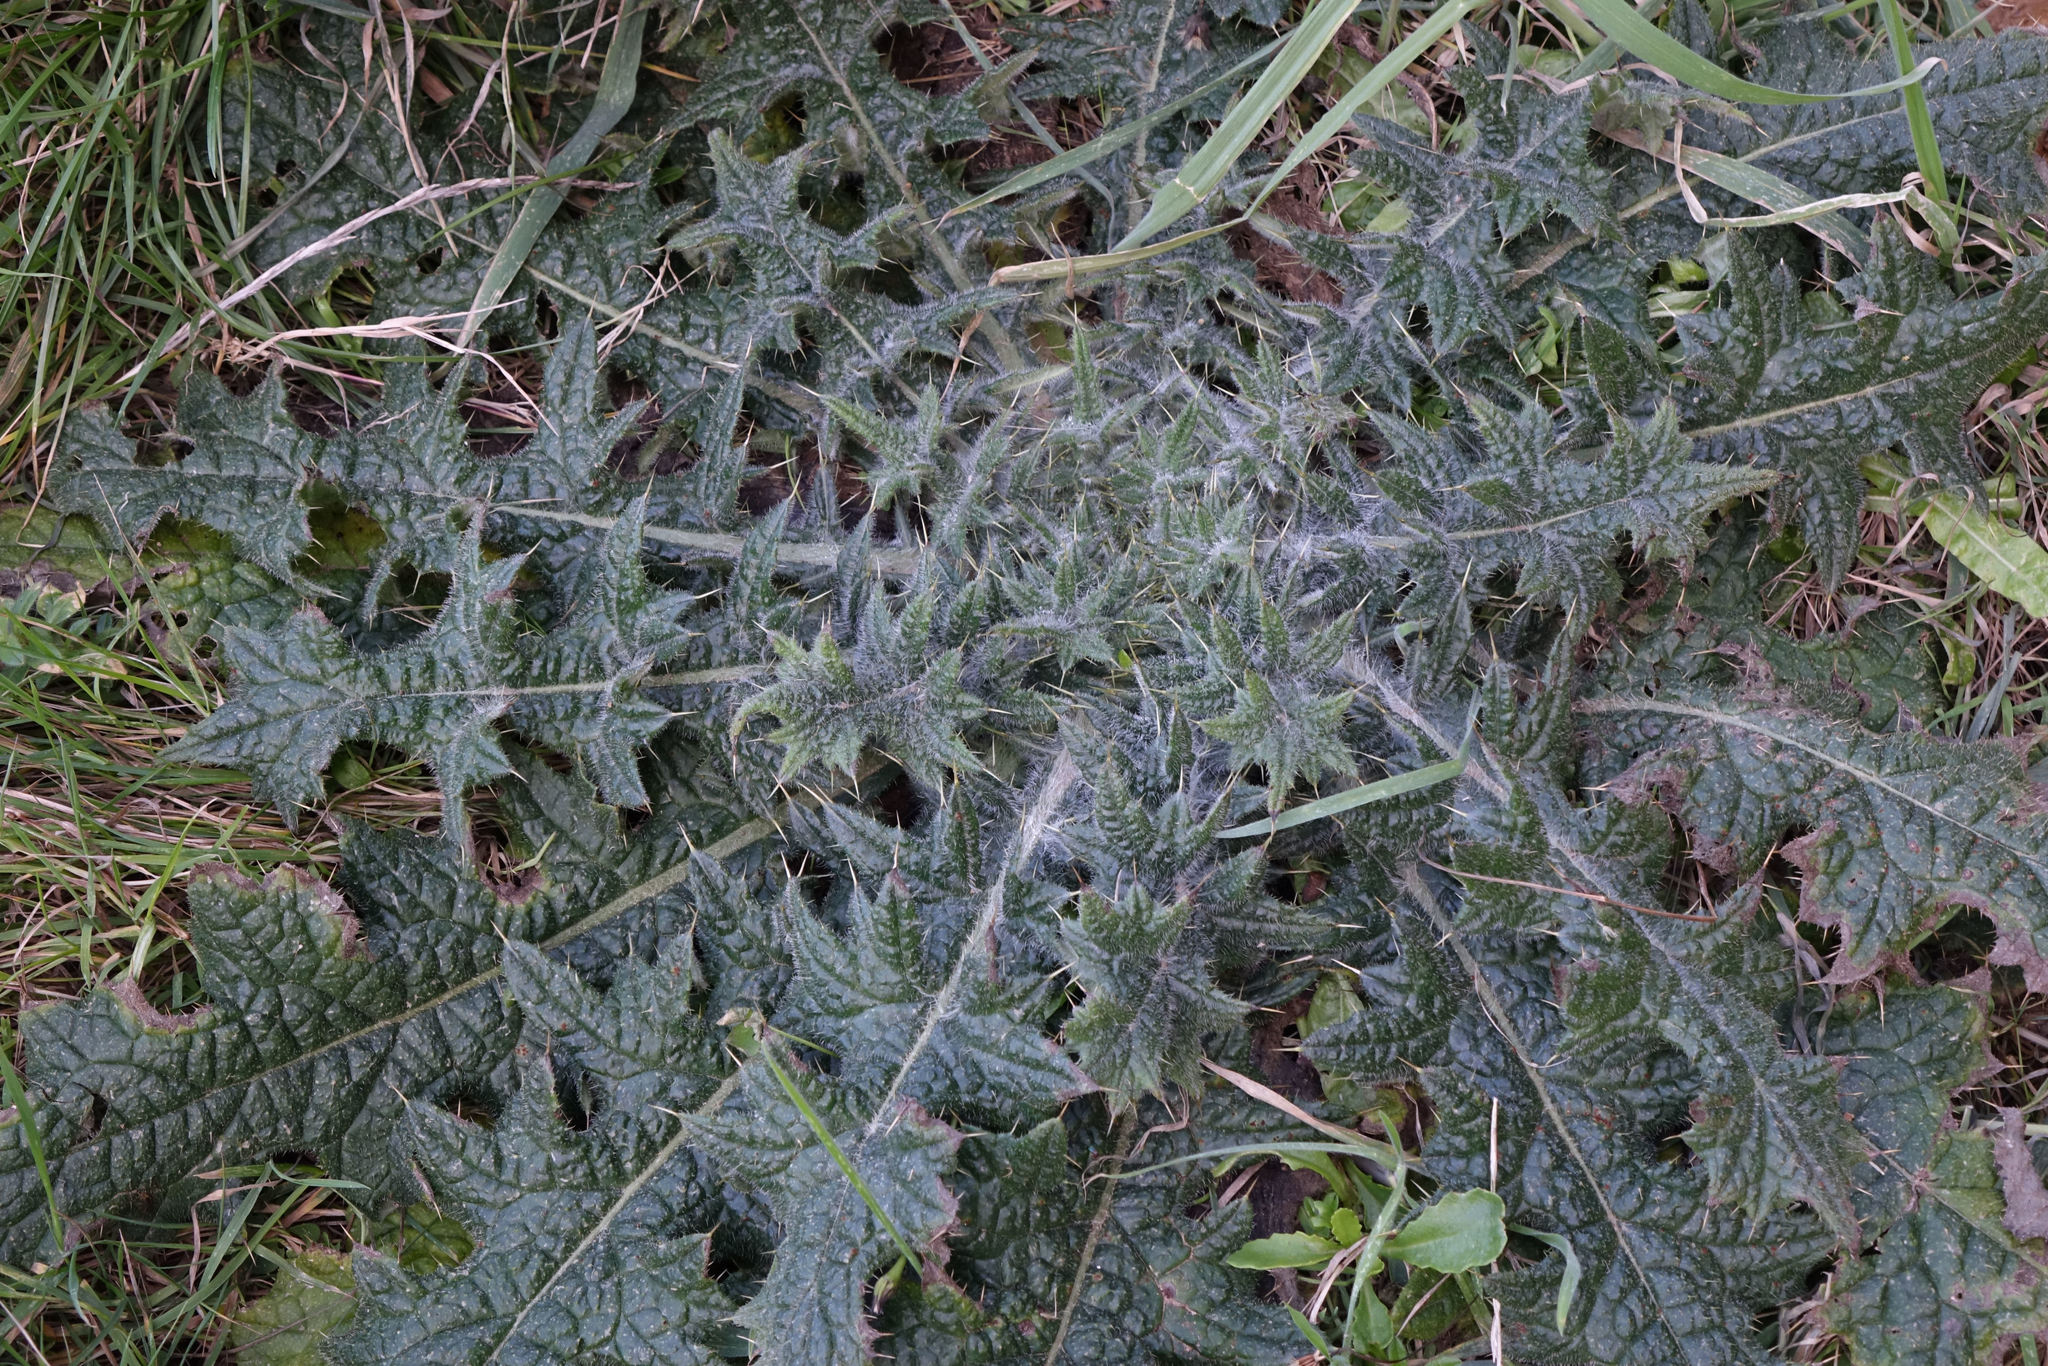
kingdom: Plantae
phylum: Tracheophyta
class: Magnoliopsida
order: Asterales
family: Asteraceae
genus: Cirsium
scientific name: Cirsium vulgare
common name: Bull thistle
